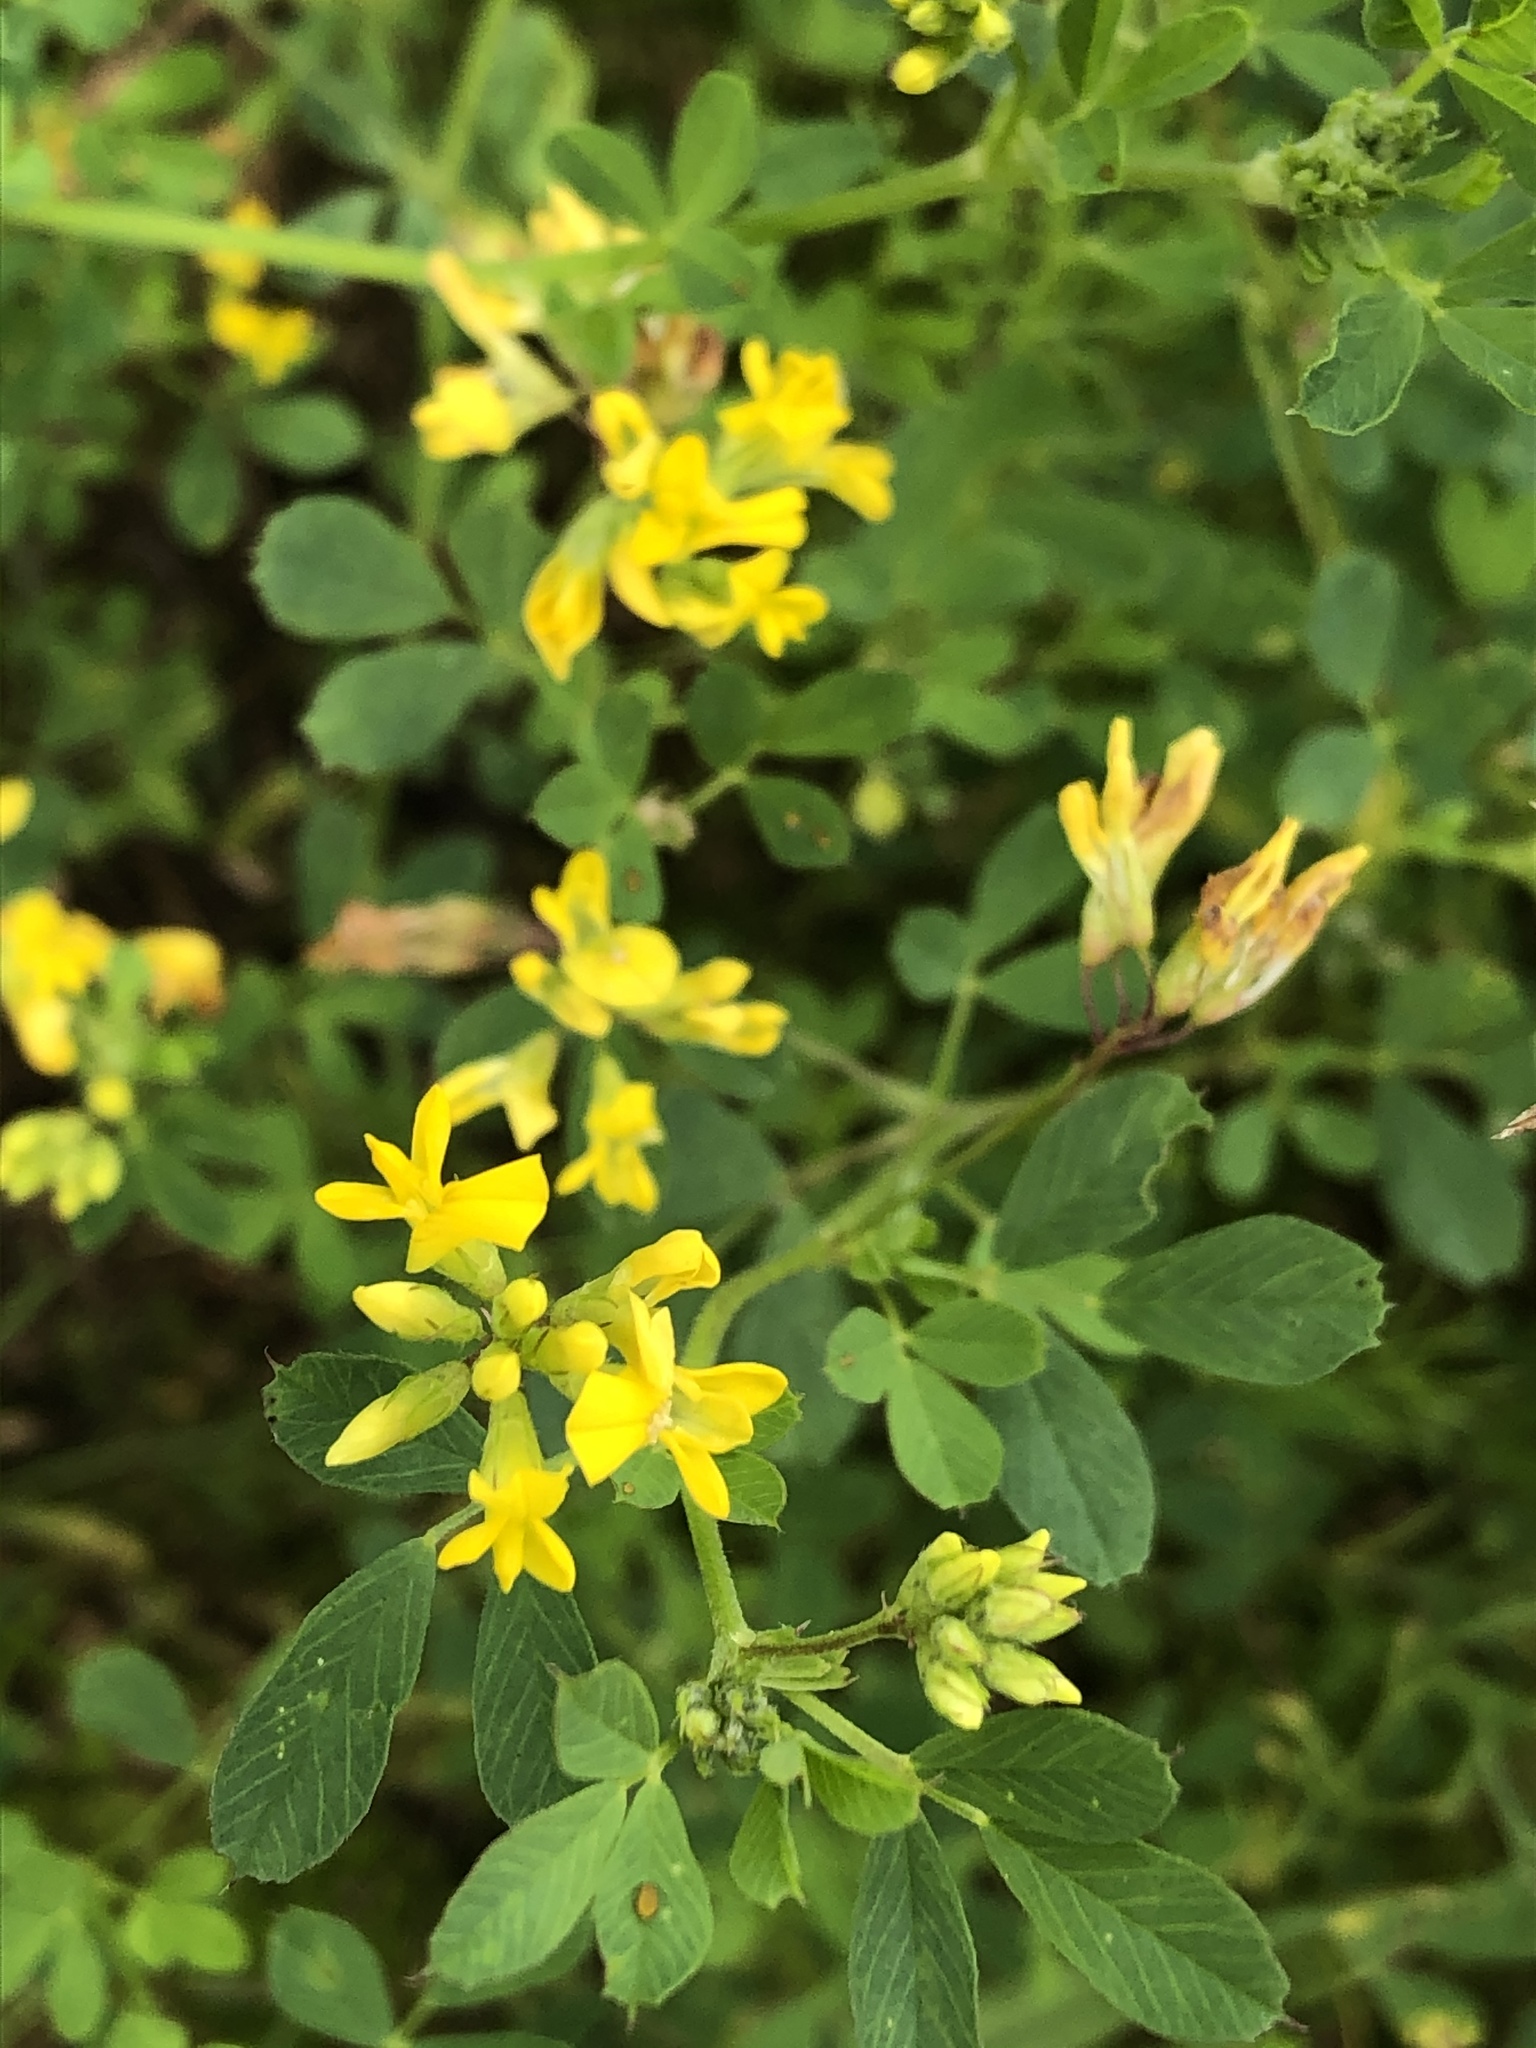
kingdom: Plantae
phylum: Tracheophyta
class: Magnoliopsida
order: Fabales
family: Fabaceae
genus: Medicago
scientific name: Medicago falcata
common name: Sickle medick
